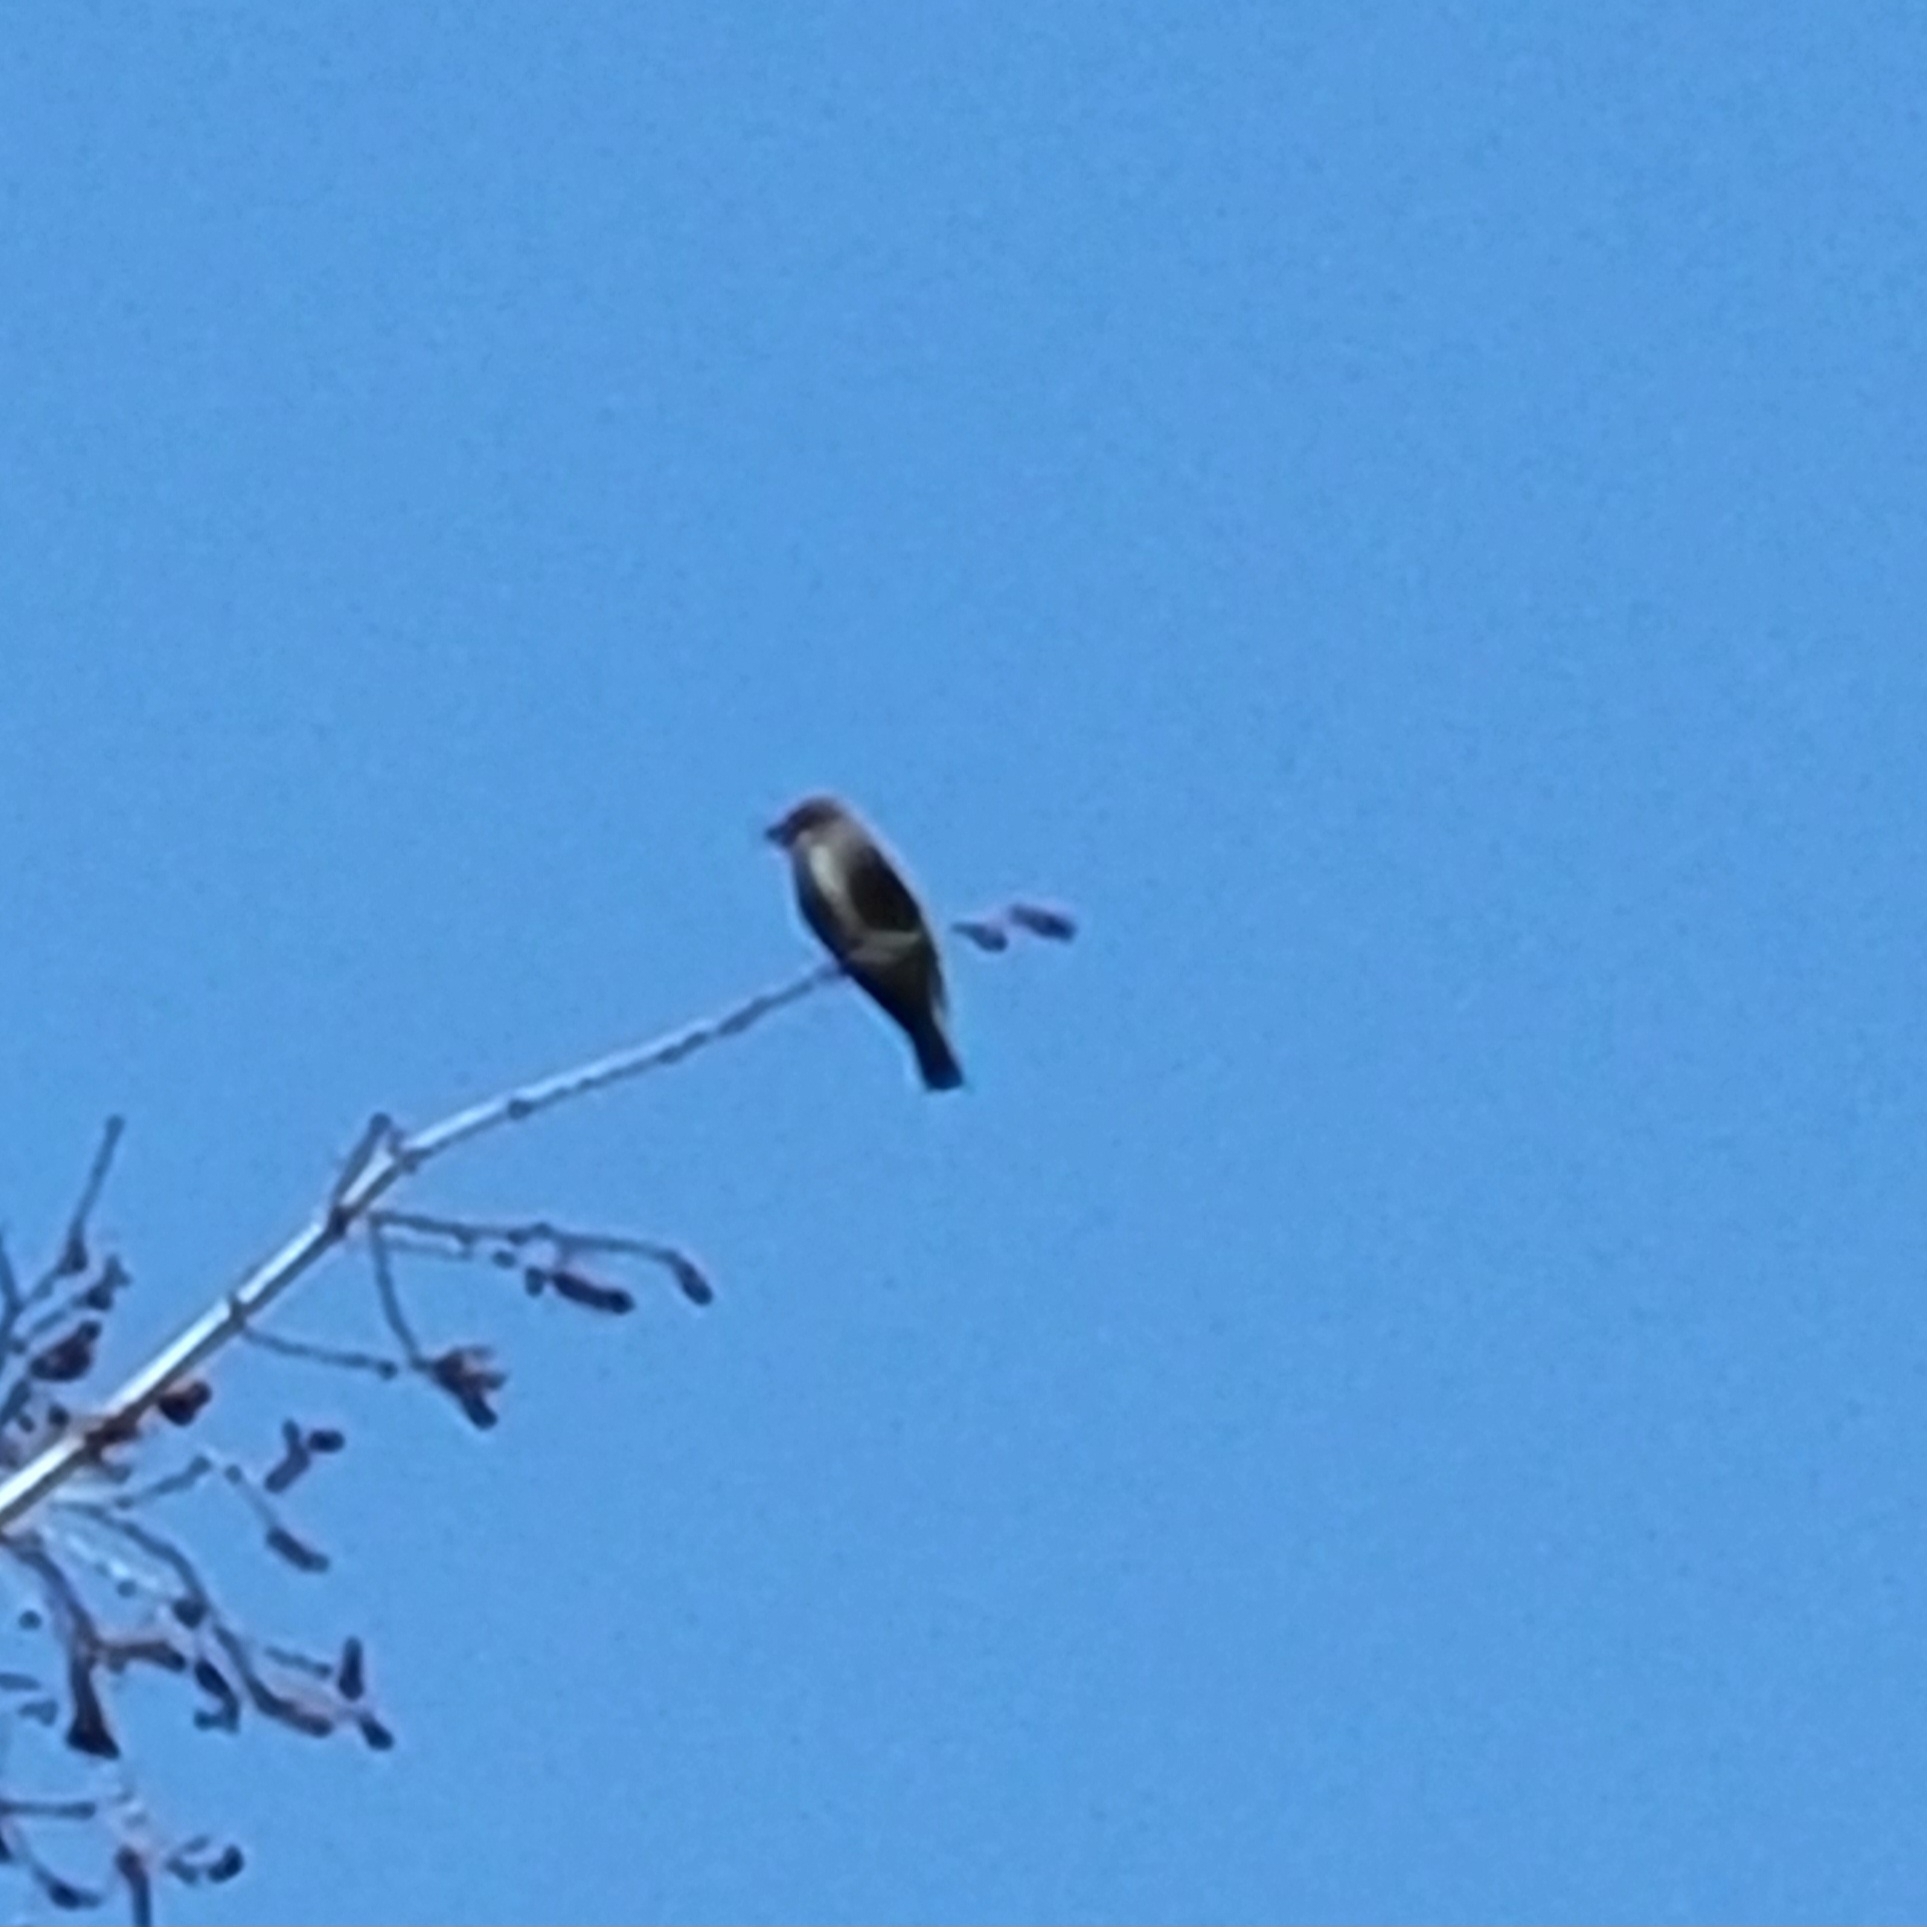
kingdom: Animalia
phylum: Chordata
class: Aves
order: Passeriformes
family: Tyrannidae
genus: Contopus
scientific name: Contopus cooperi
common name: Olive-sided flycatcher
